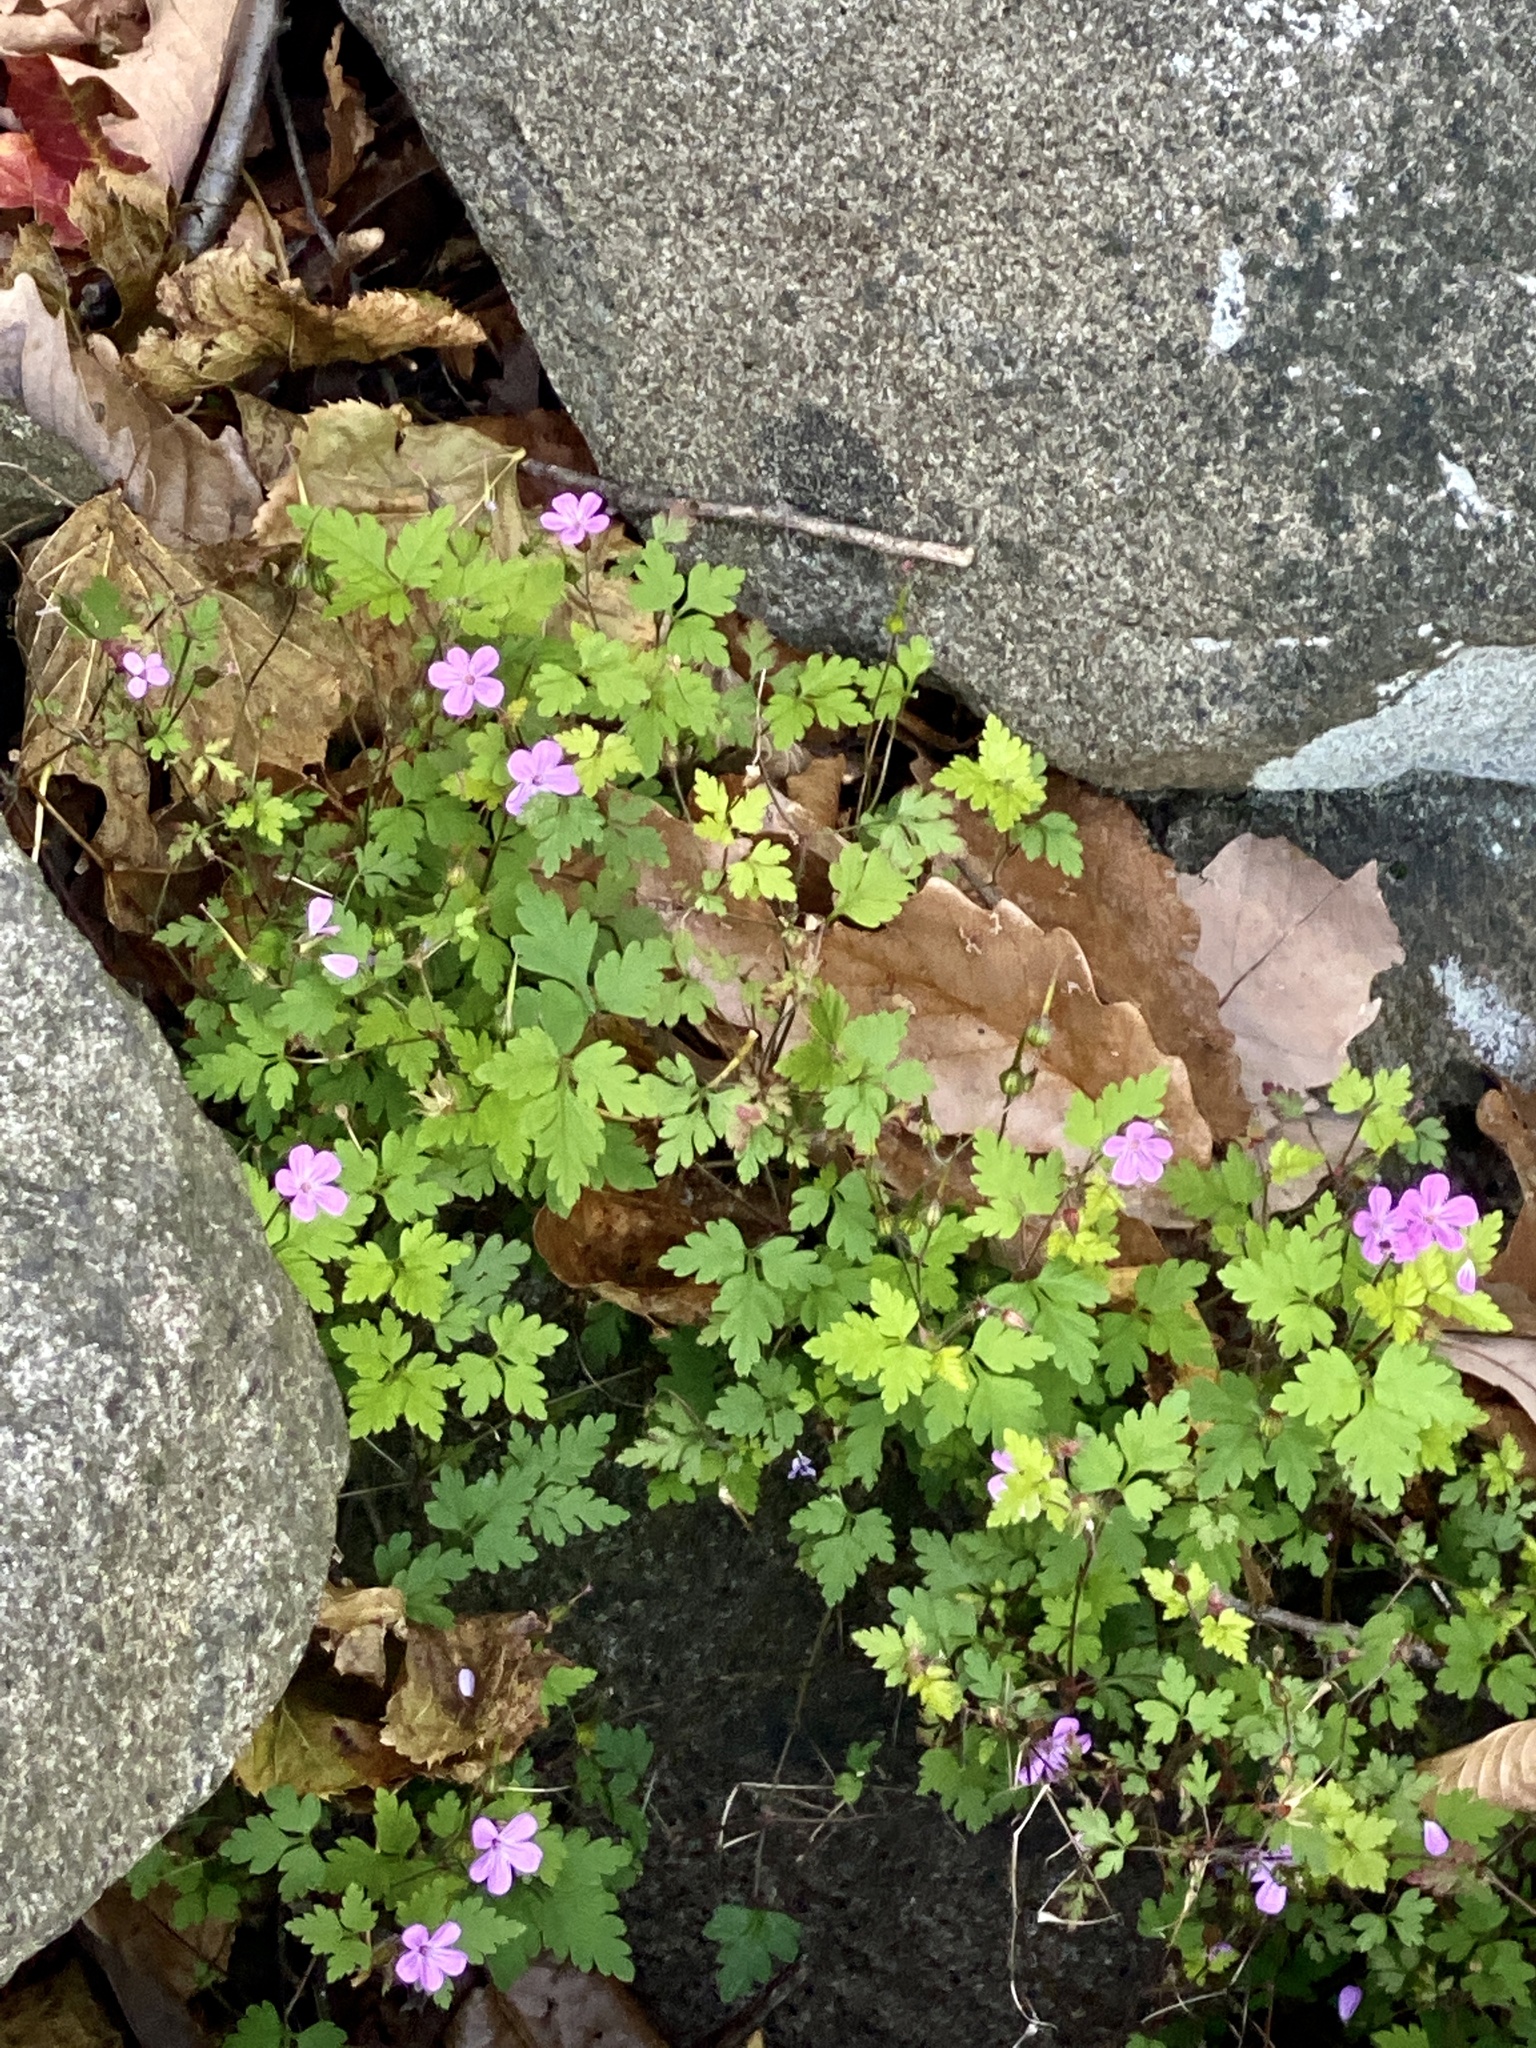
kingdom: Plantae
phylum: Tracheophyta
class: Magnoliopsida
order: Geraniales
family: Geraniaceae
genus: Geranium
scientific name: Geranium robertianum
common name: Herb-robert
